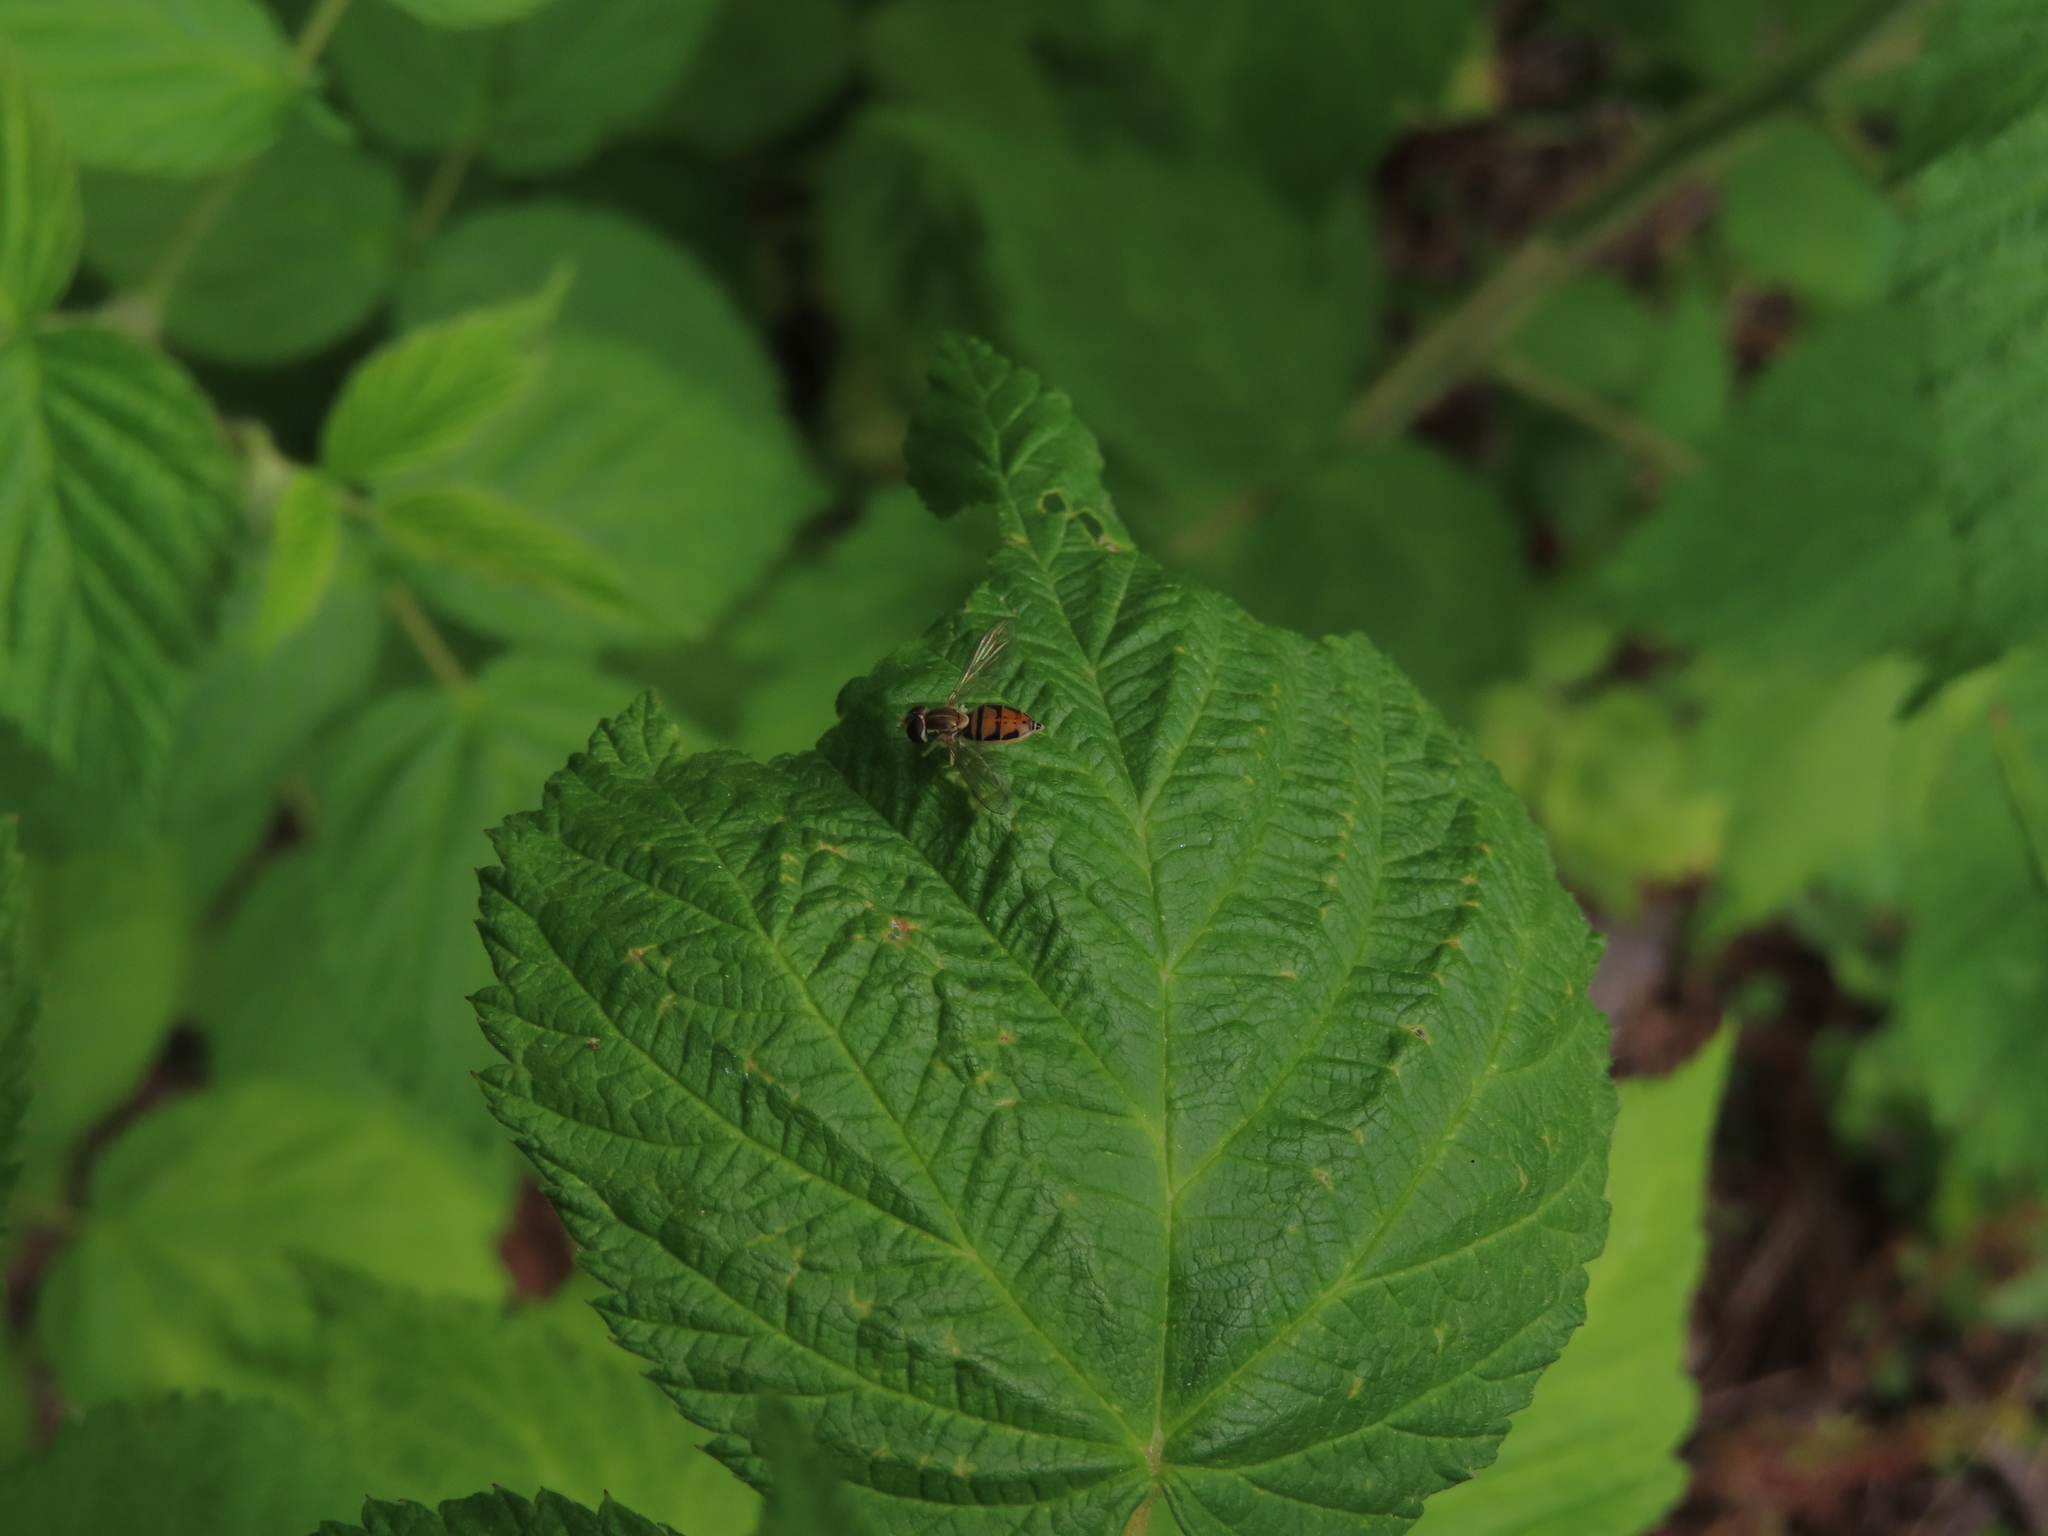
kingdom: Animalia
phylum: Arthropoda
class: Insecta
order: Diptera
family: Syrphidae
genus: Toxomerus
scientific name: Toxomerus marginatus
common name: Syrphid fly
